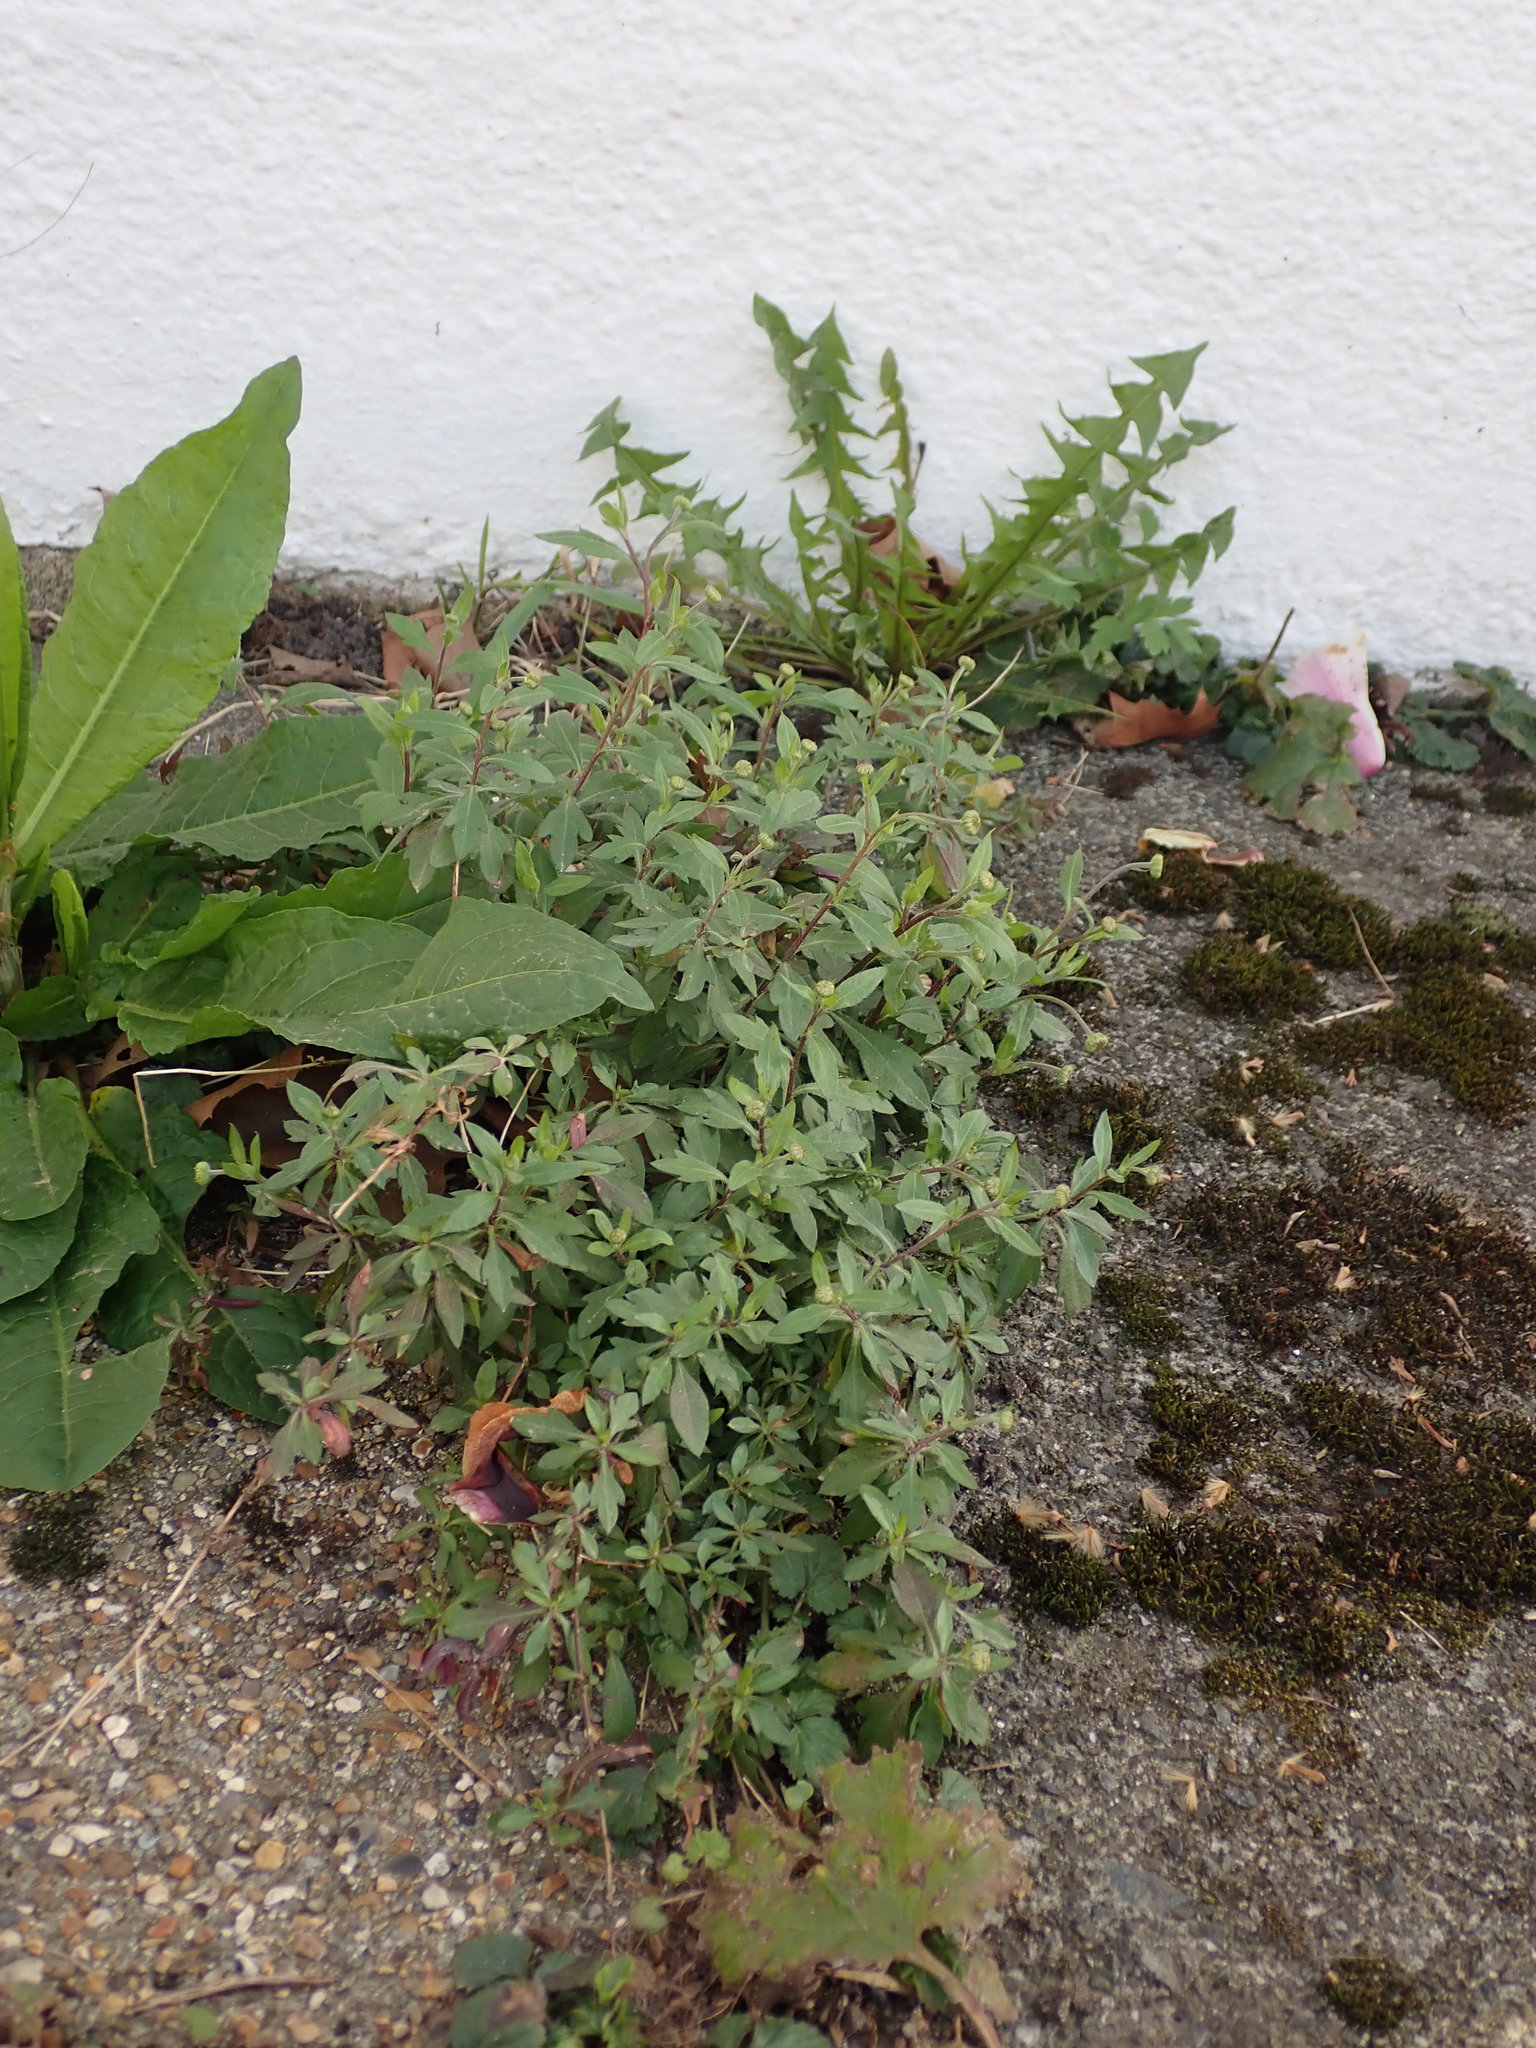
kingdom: Plantae
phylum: Tracheophyta
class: Magnoliopsida
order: Asterales
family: Asteraceae
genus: Erigeron
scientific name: Erigeron karvinskianus
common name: Mexican fleabane
